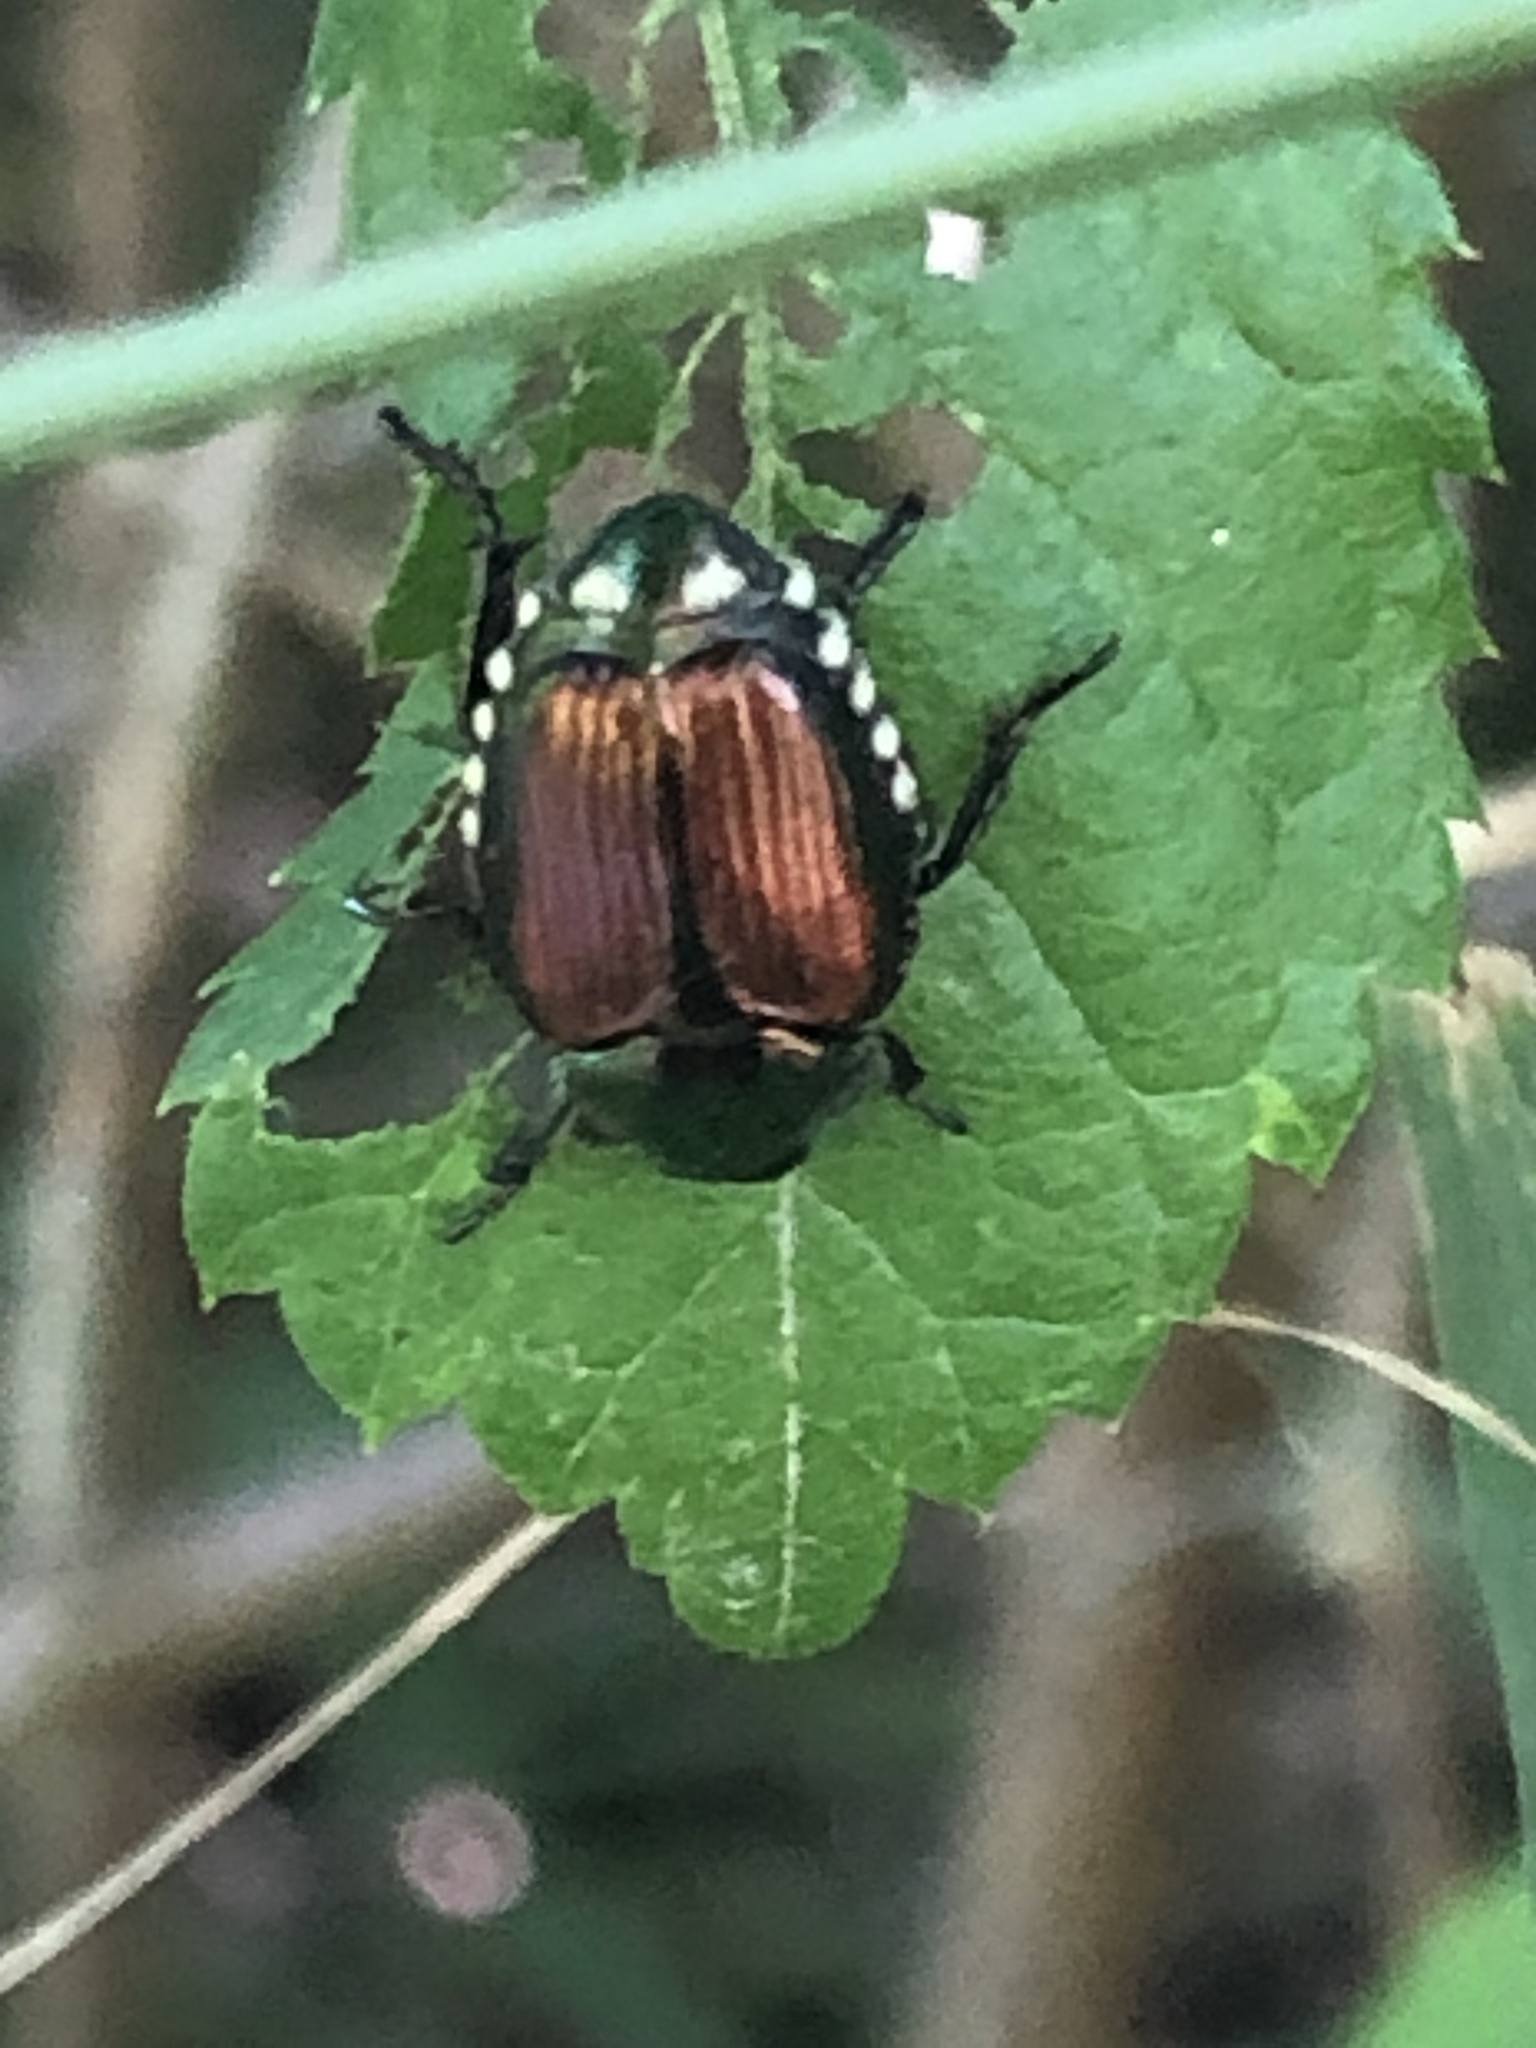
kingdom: Animalia
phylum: Arthropoda
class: Insecta
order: Coleoptera
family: Scarabaeidae
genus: Popillia
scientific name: Popillia japonica
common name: Japanese beetle
